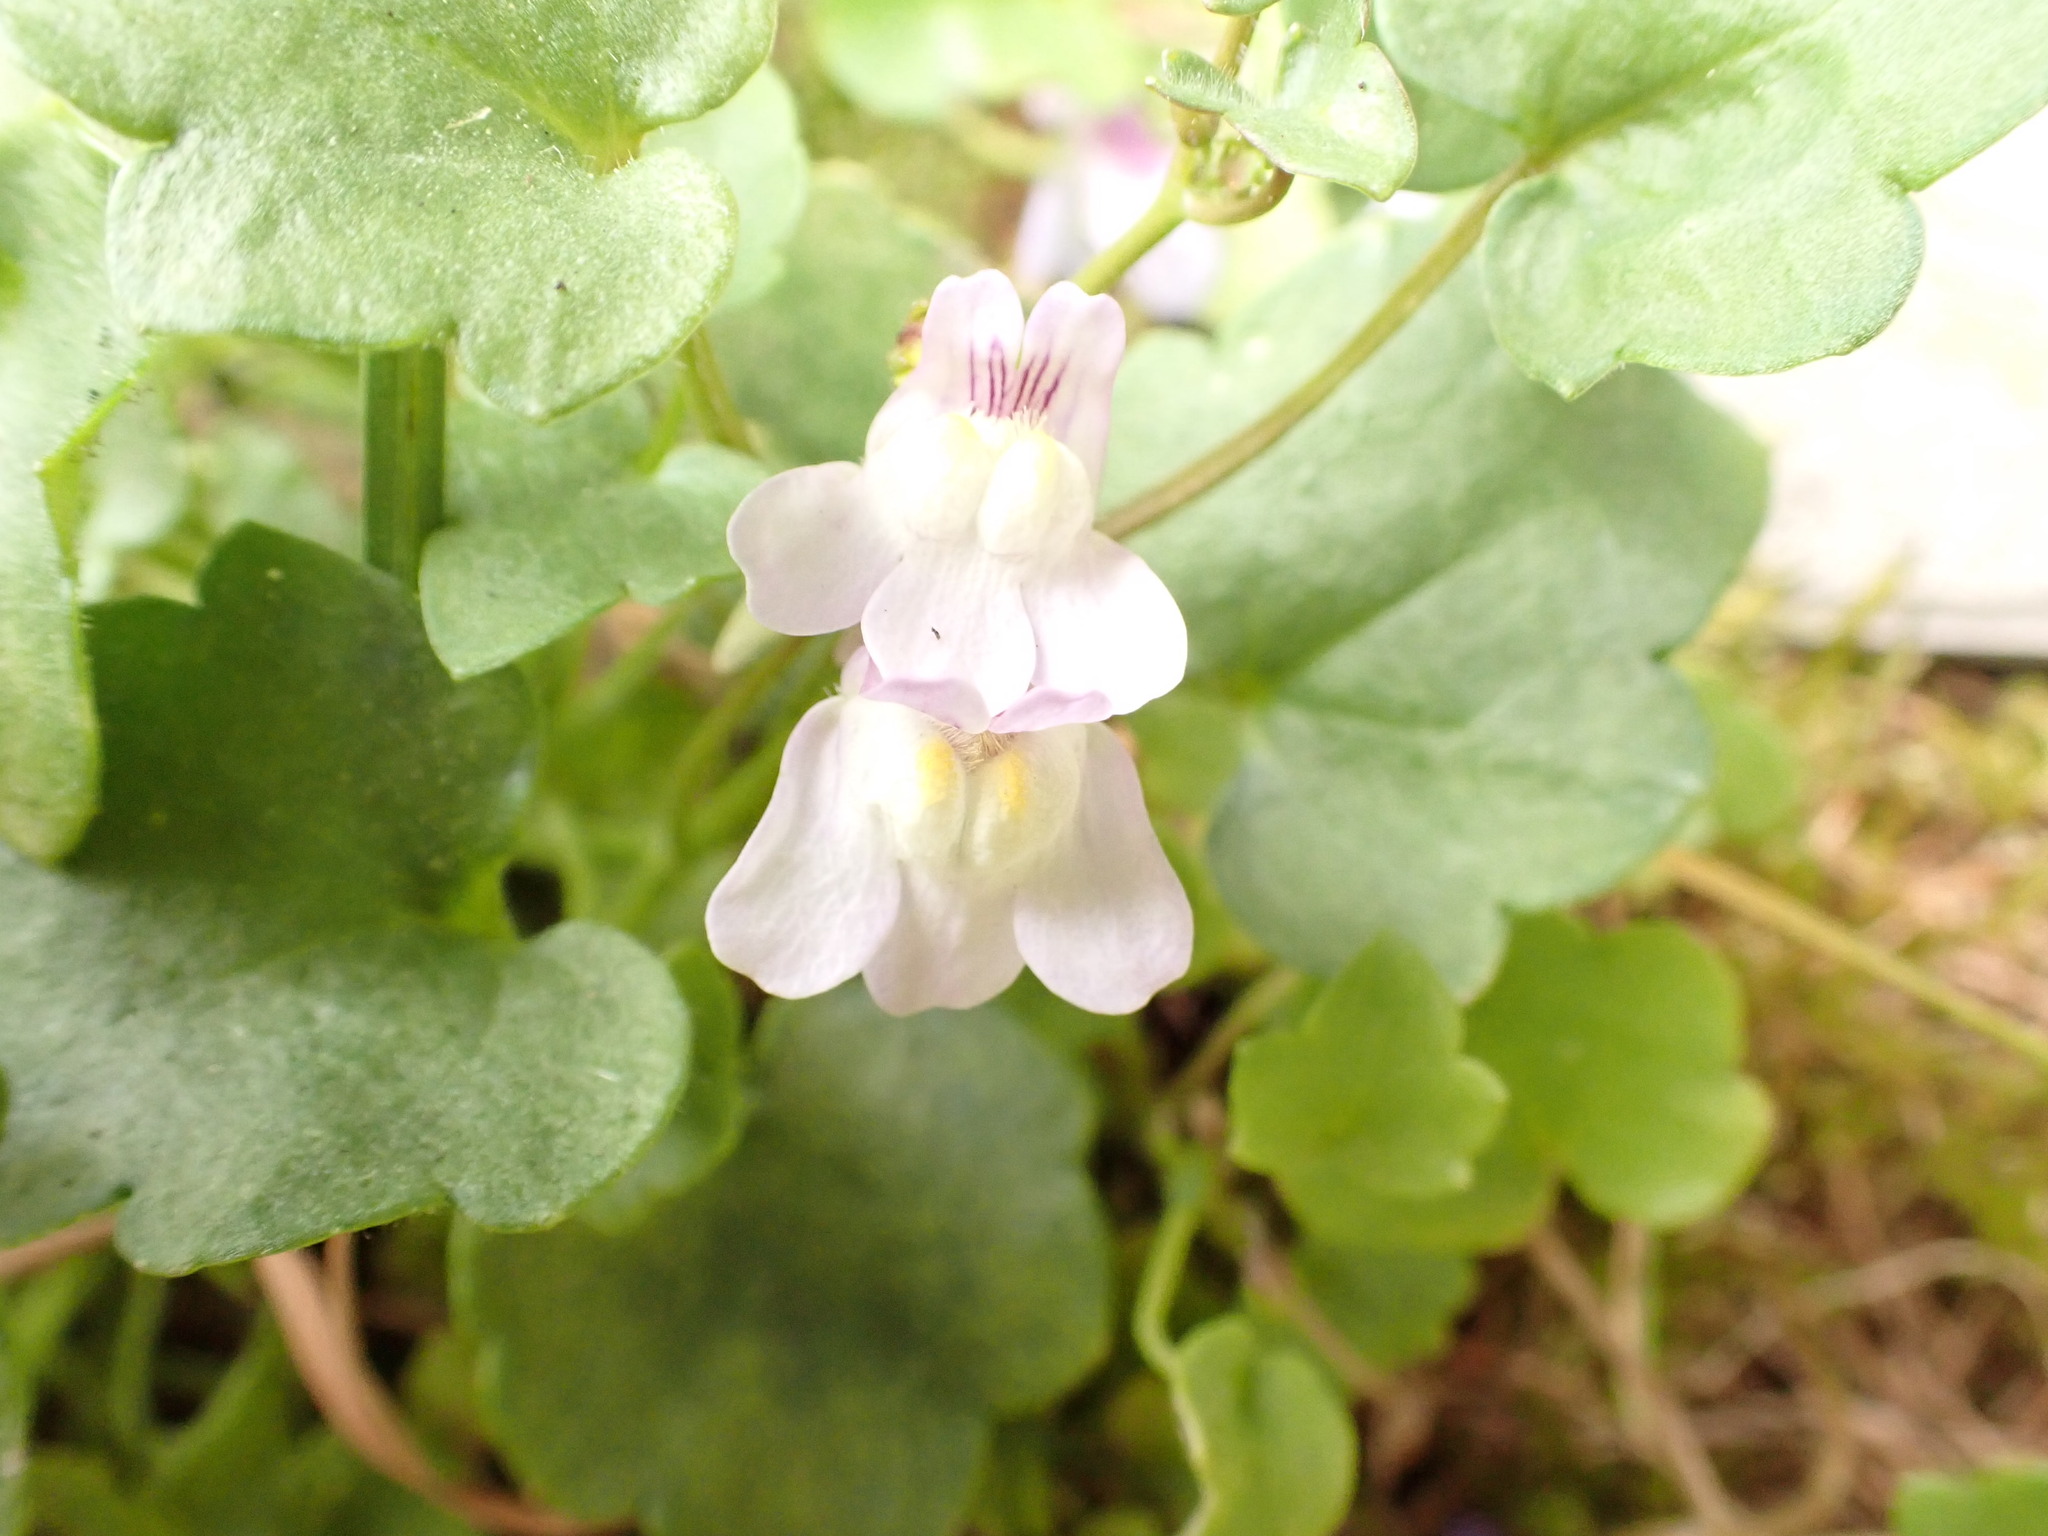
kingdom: Plantae
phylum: Tracheophyta
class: Magnoliopsida
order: Lamiales
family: Plantaginaceae
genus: Cymbalaria
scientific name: Cymbalaria muralis
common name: Ivy-leaved toadflax
